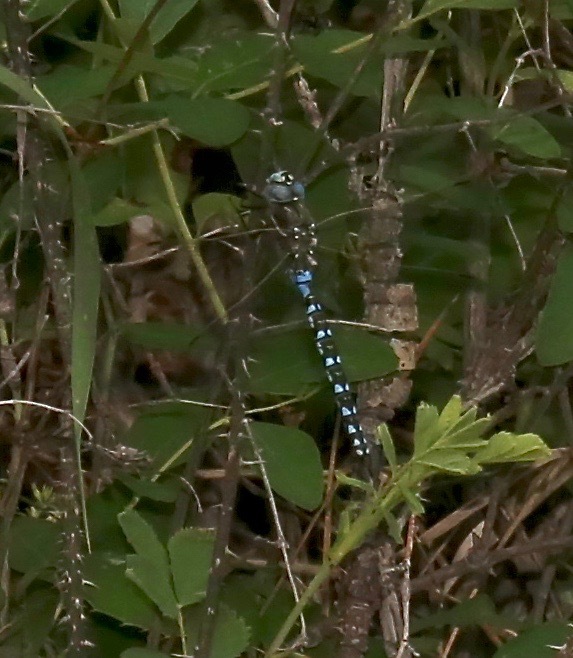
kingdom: Animalia
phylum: Arthropoda
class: Insecta
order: Odonata
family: Aeshnidae
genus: Rhionaeschna
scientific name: Rhionaeschna californica
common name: California darner
